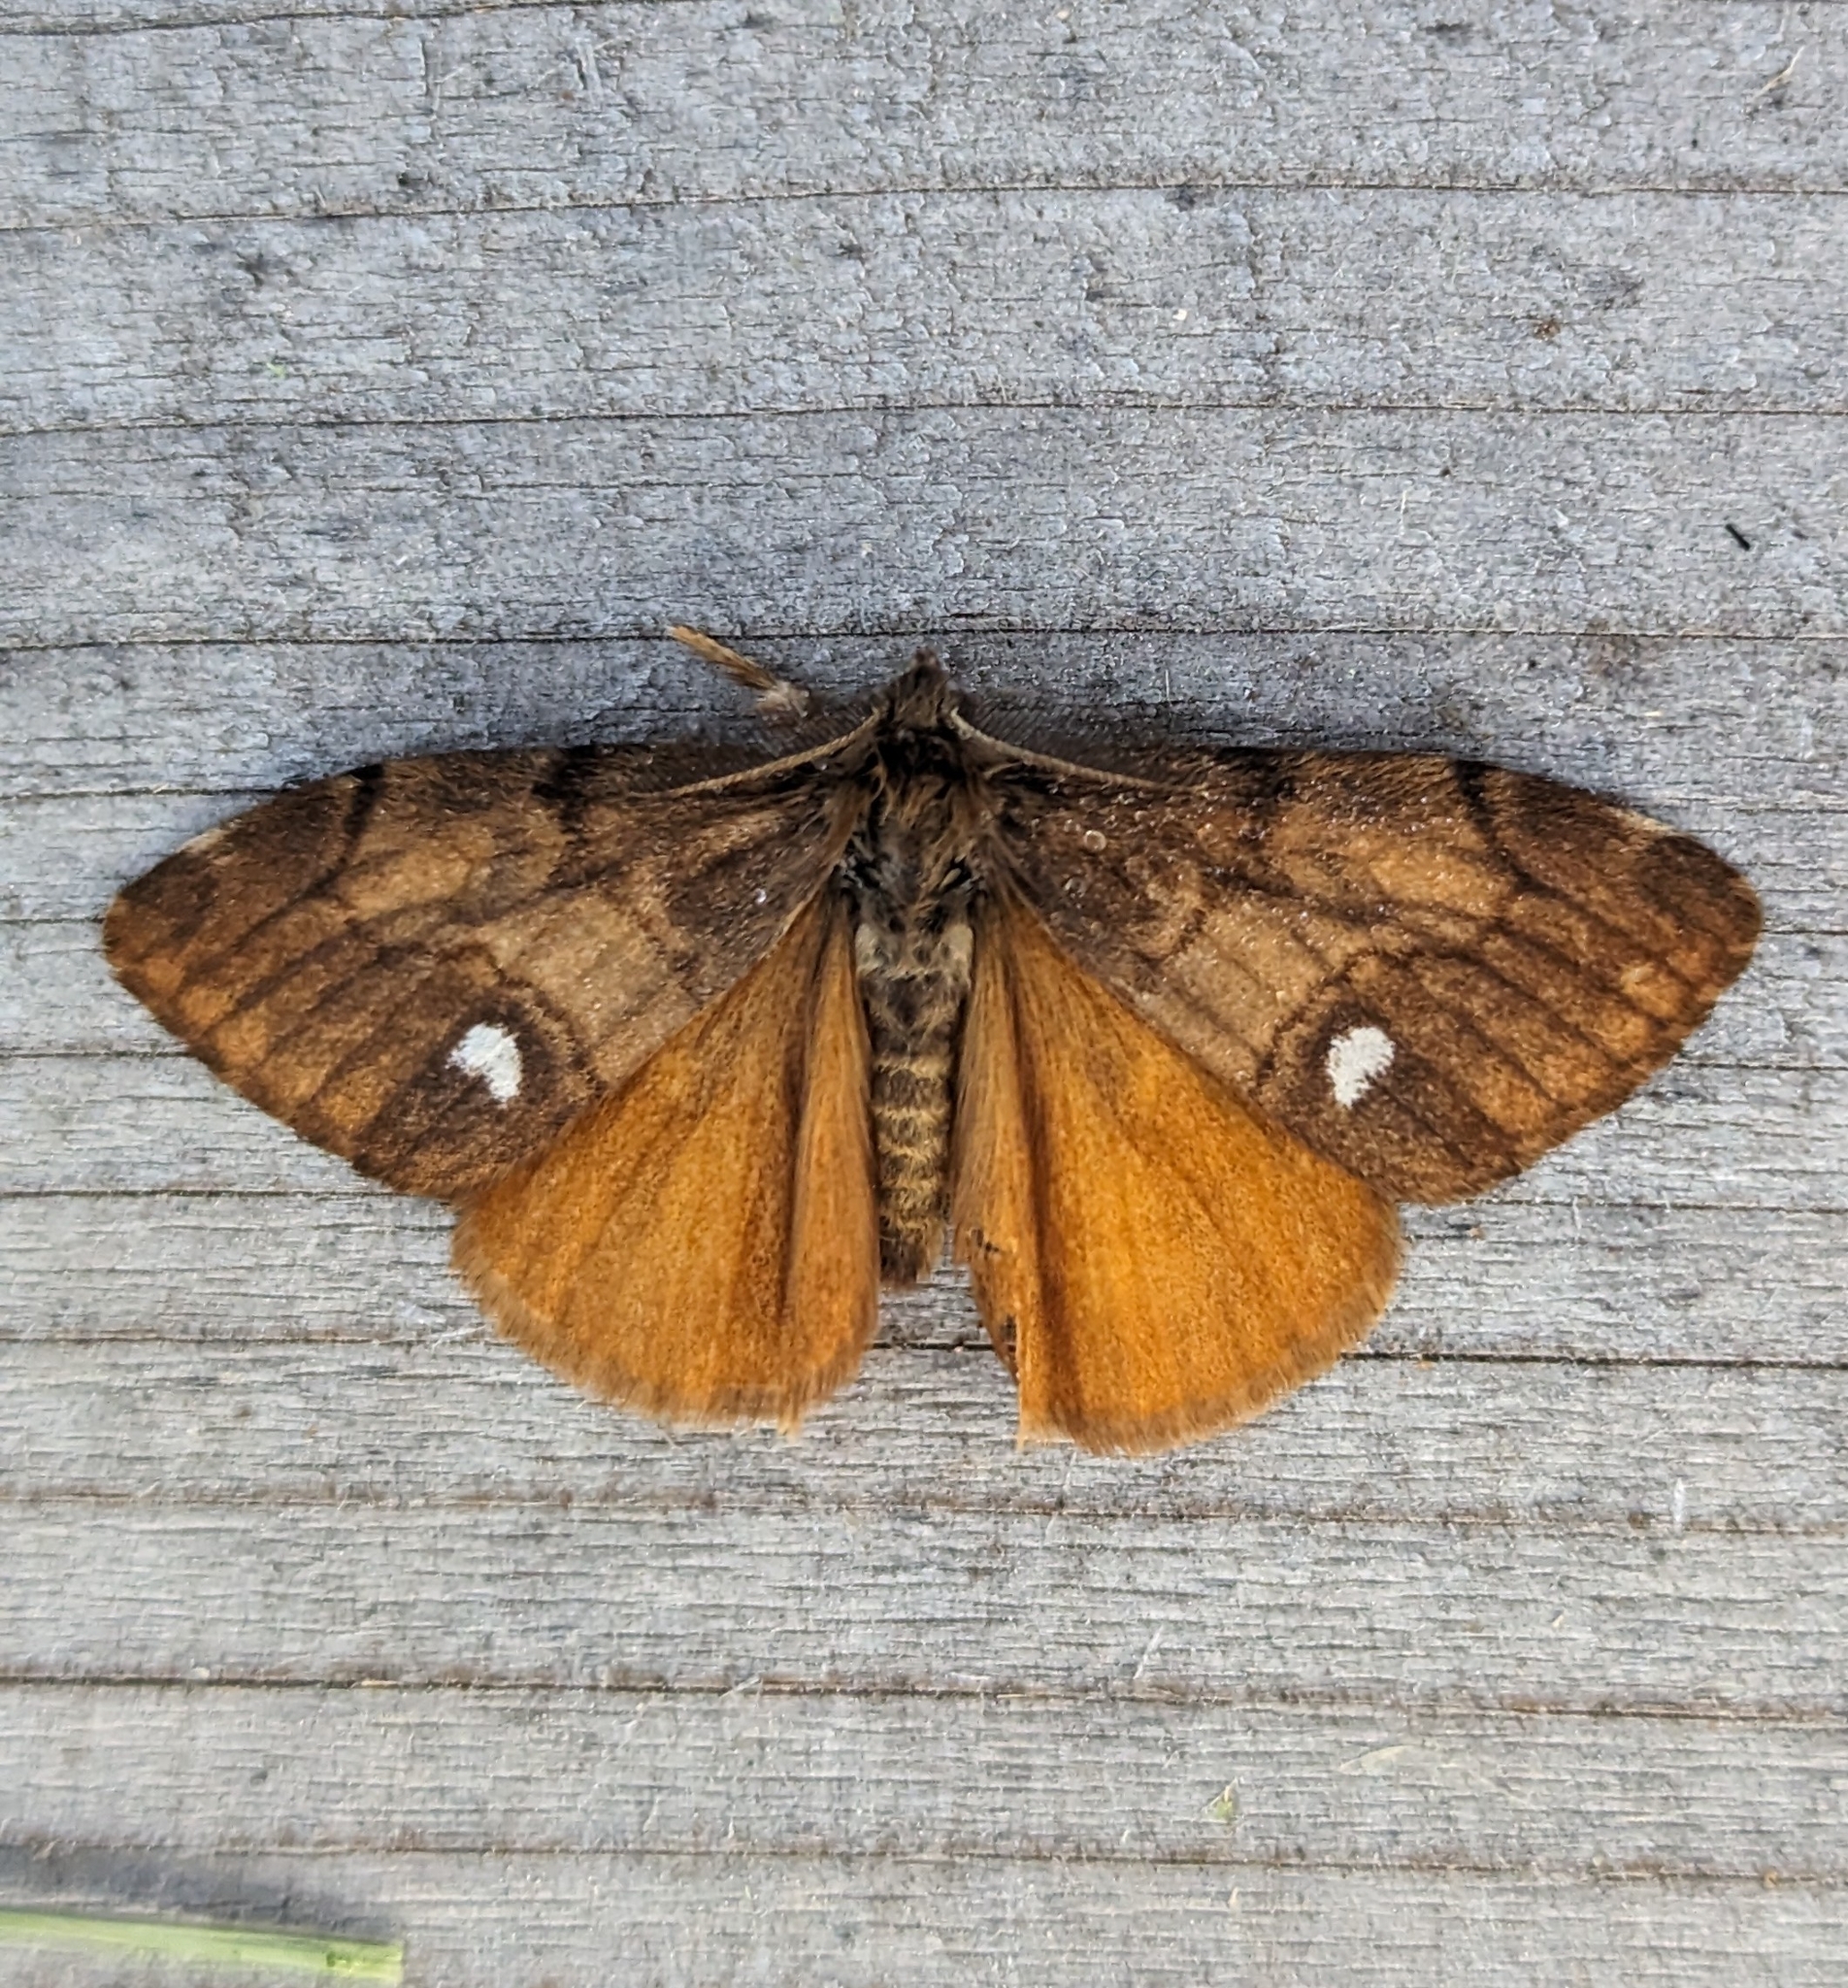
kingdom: Animalia
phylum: Arthropoda
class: Insecta
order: Lepidoptera
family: Erebidae
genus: Orgyia
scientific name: Orgyia antiqua
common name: Vapourer
